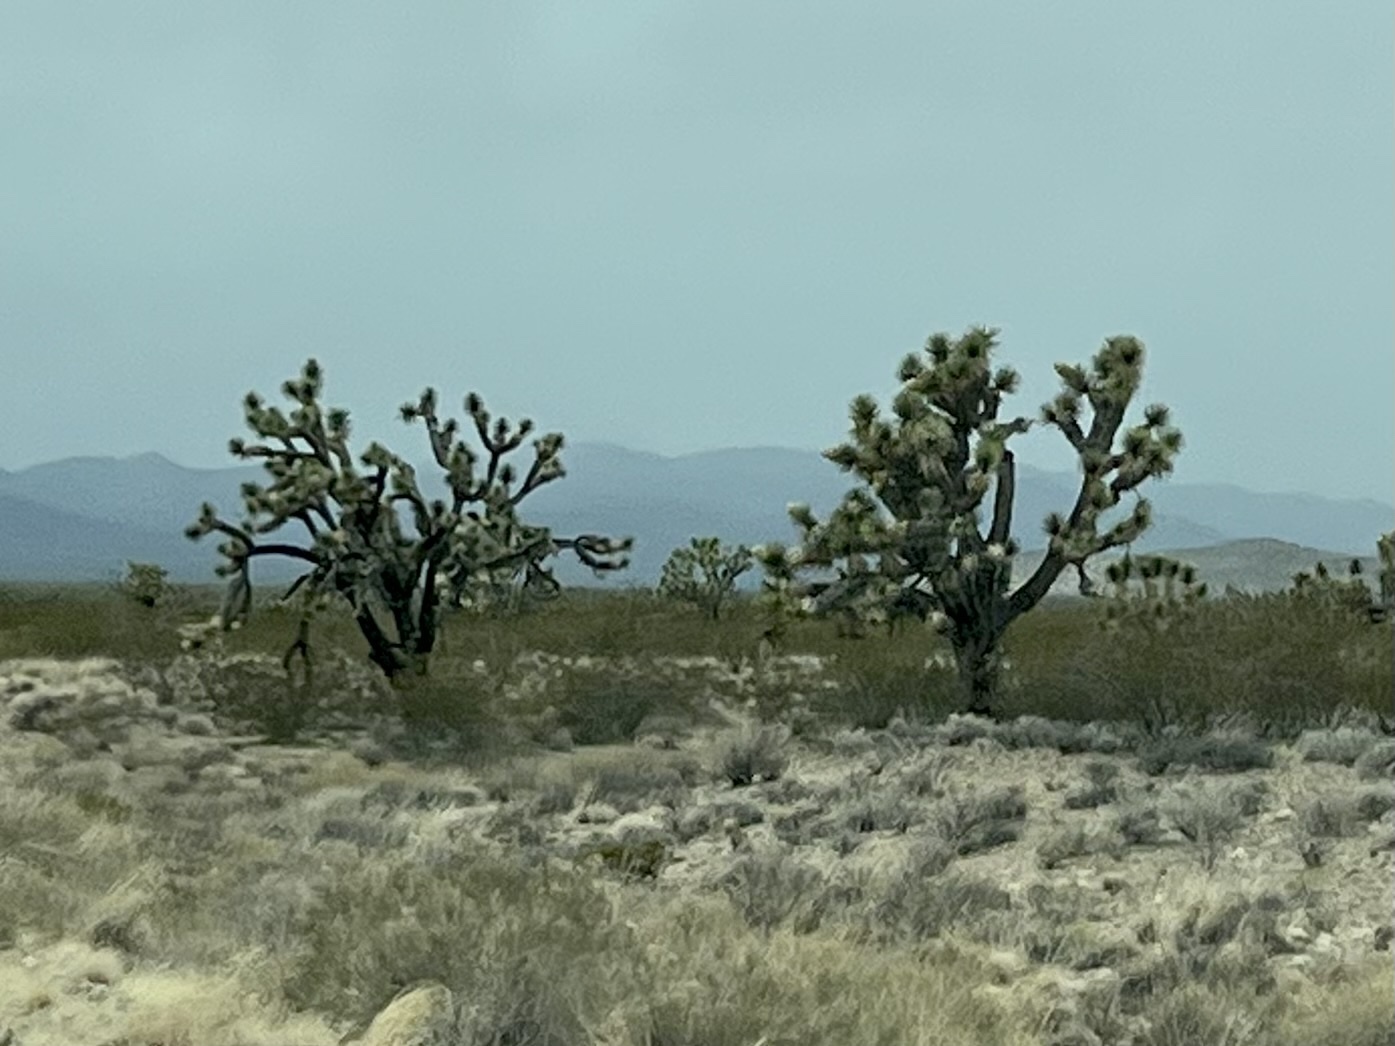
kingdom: Plantae
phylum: Tracheophyta
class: Liliopsida
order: Asparagales
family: Asparagaceae
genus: Yucca
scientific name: Yucca brevifolia
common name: Joshua tree
